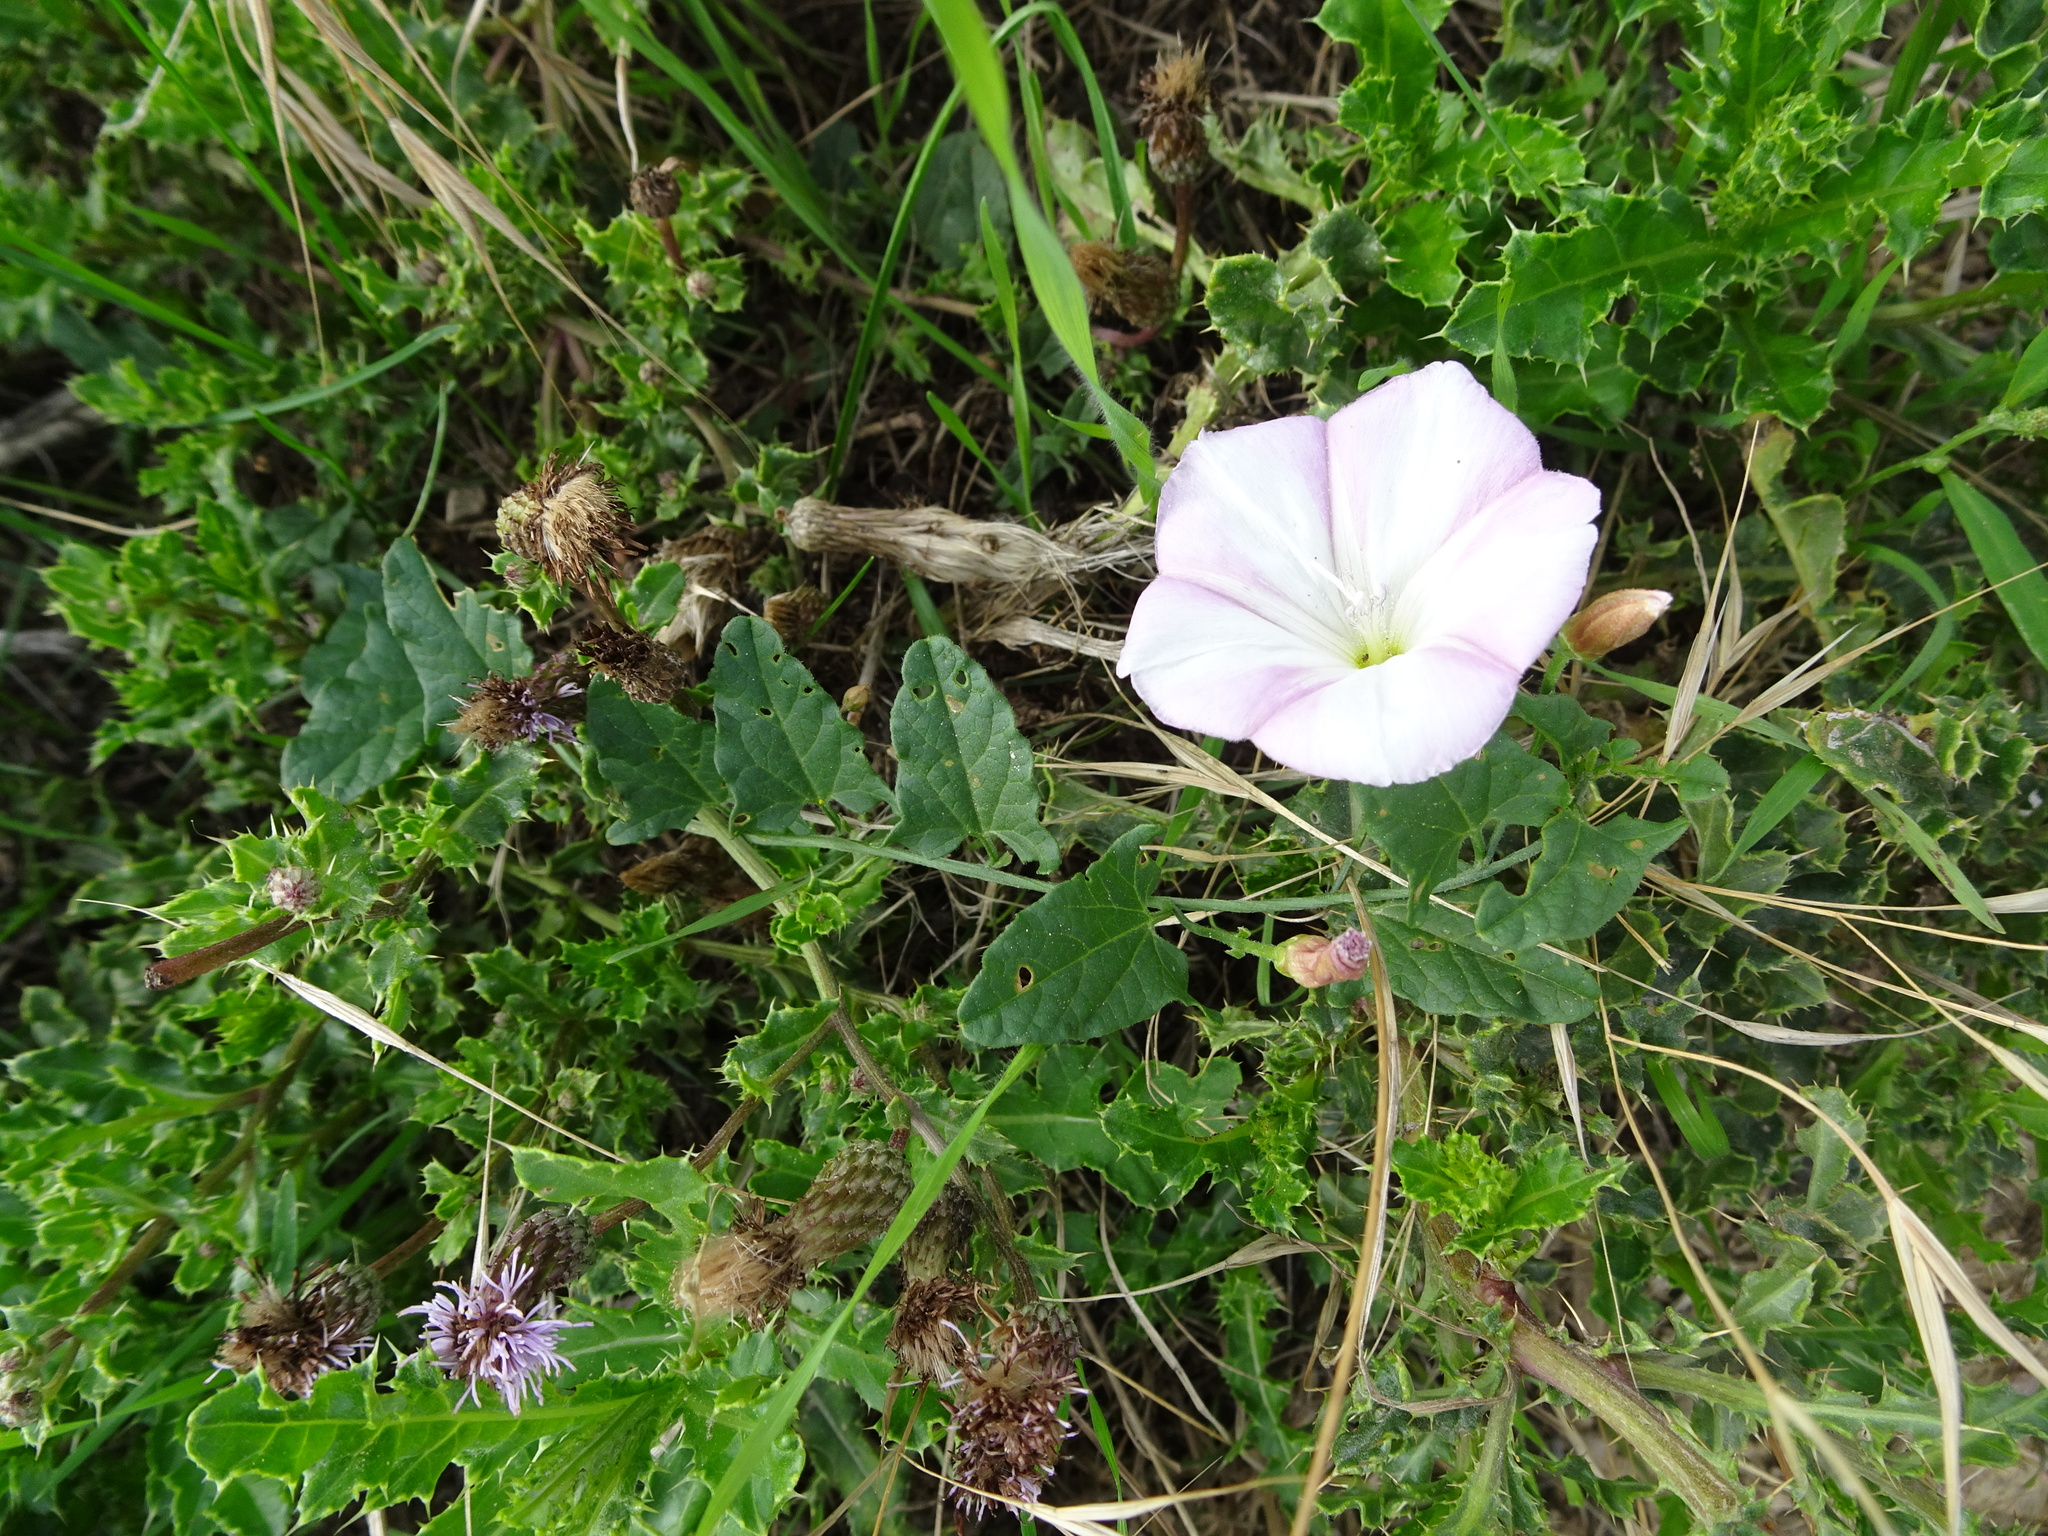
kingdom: Plantae
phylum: Tracheophyta
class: Magnoliopsida
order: Solanales
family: Convolvulaceae
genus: Convolvulus
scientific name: Convolvulus arvensis
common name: Field bindweed
